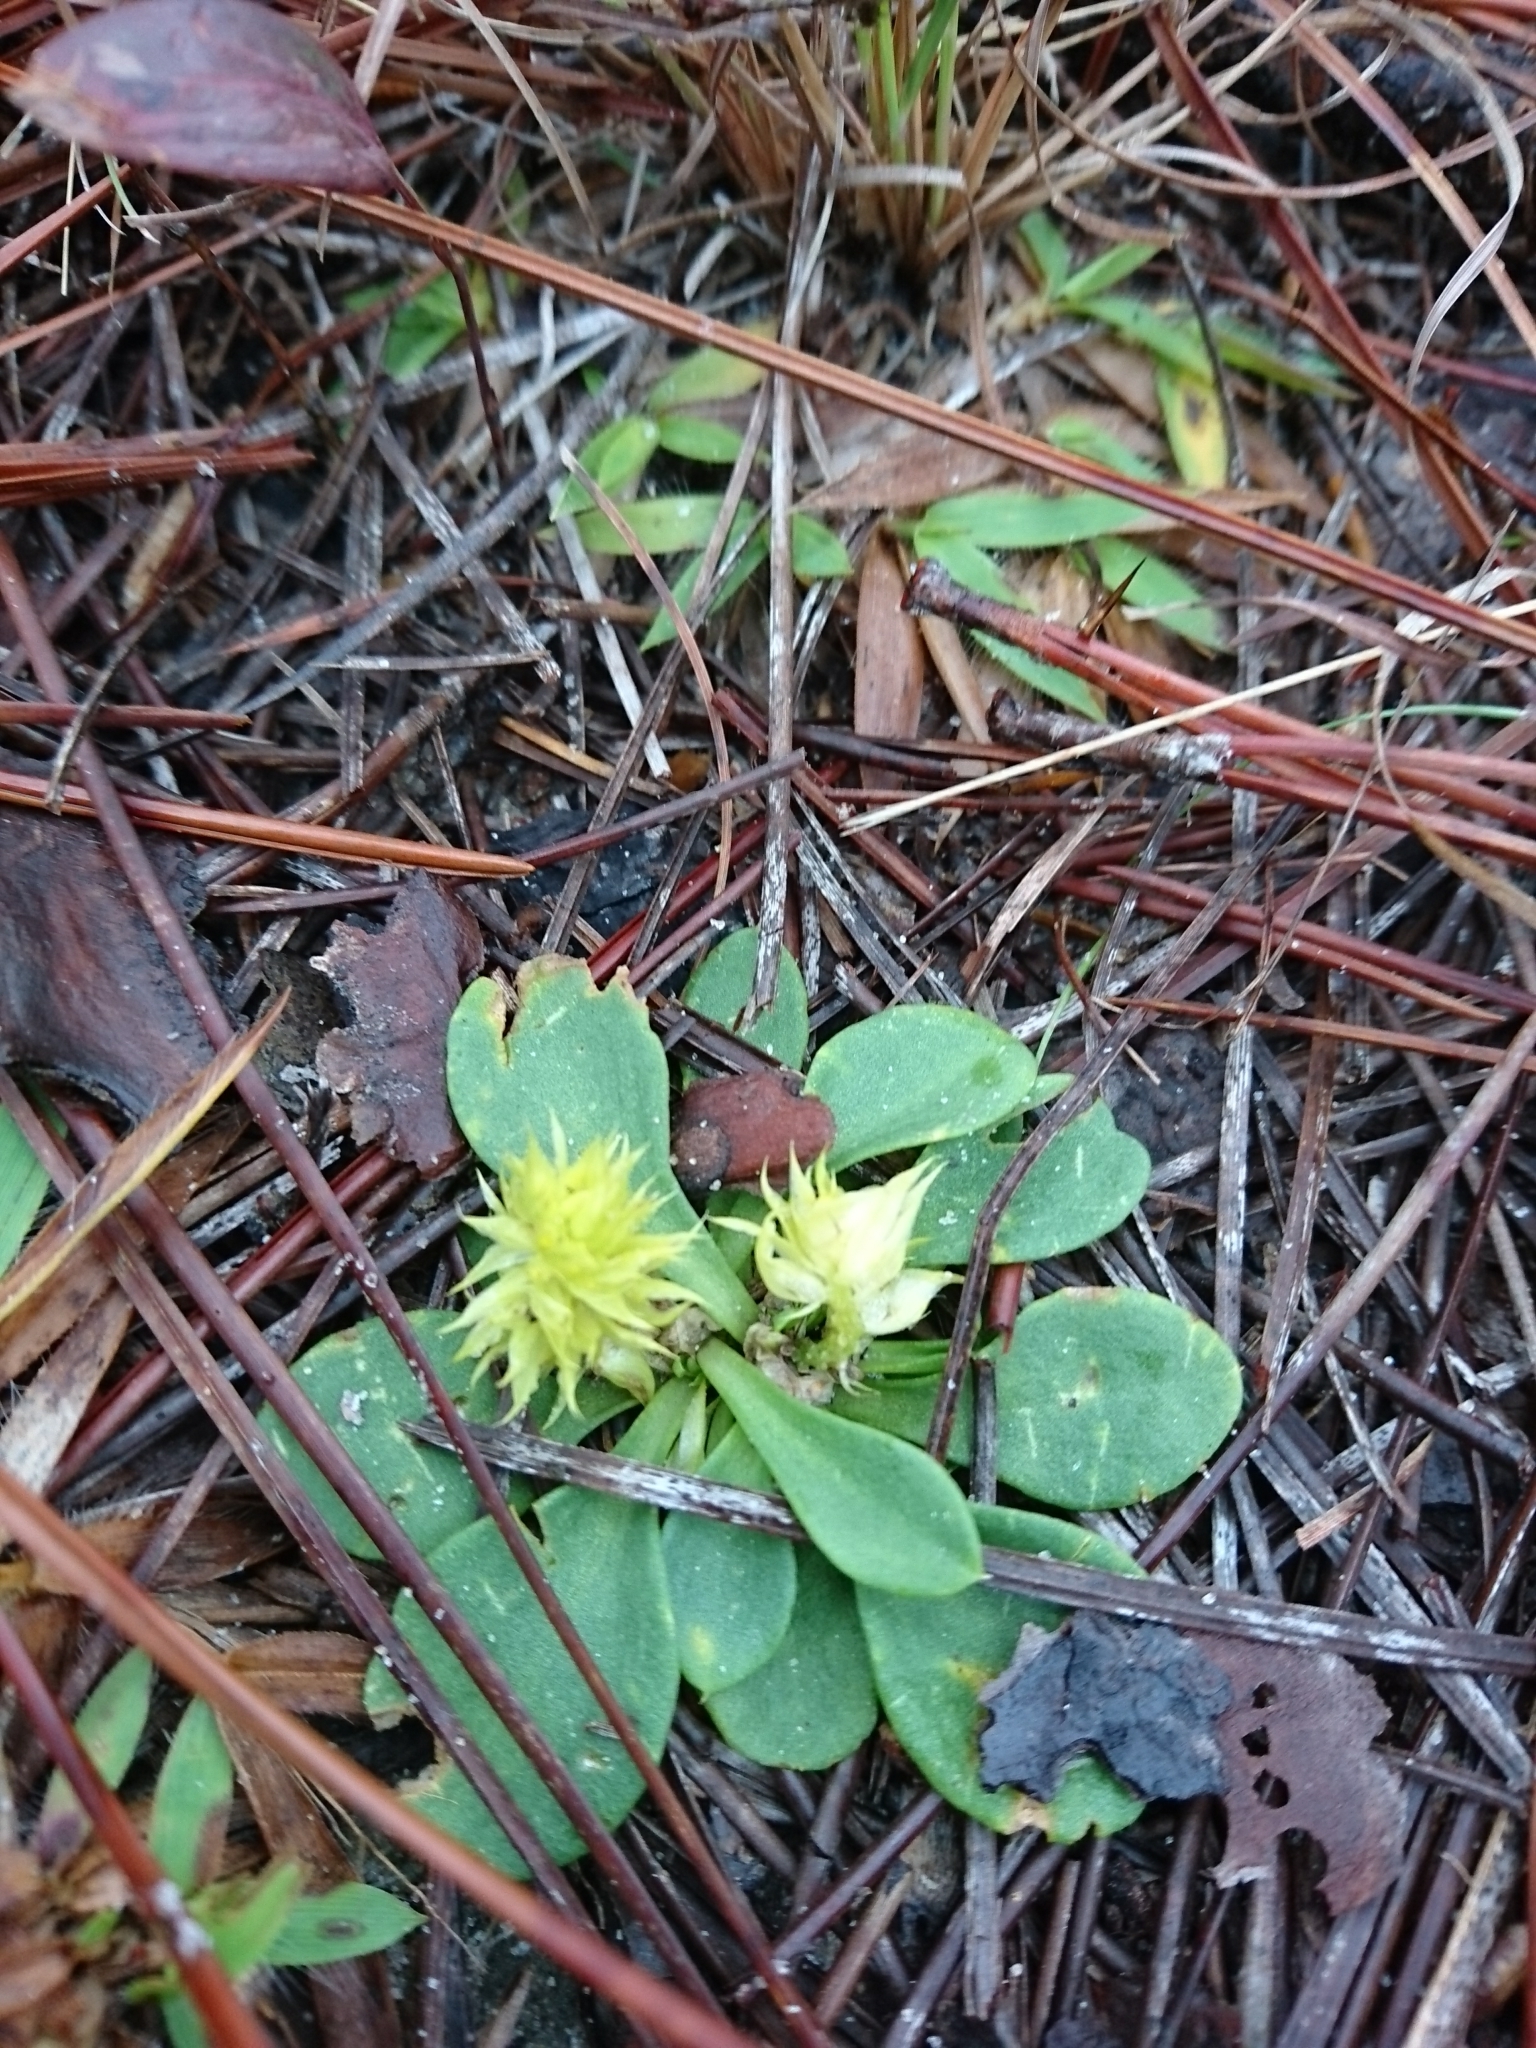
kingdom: Plantae
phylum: Tracheophyta
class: Magnoliopsida
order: Fabales
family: Polygalaceae
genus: Polygala
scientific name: Polygala nana
